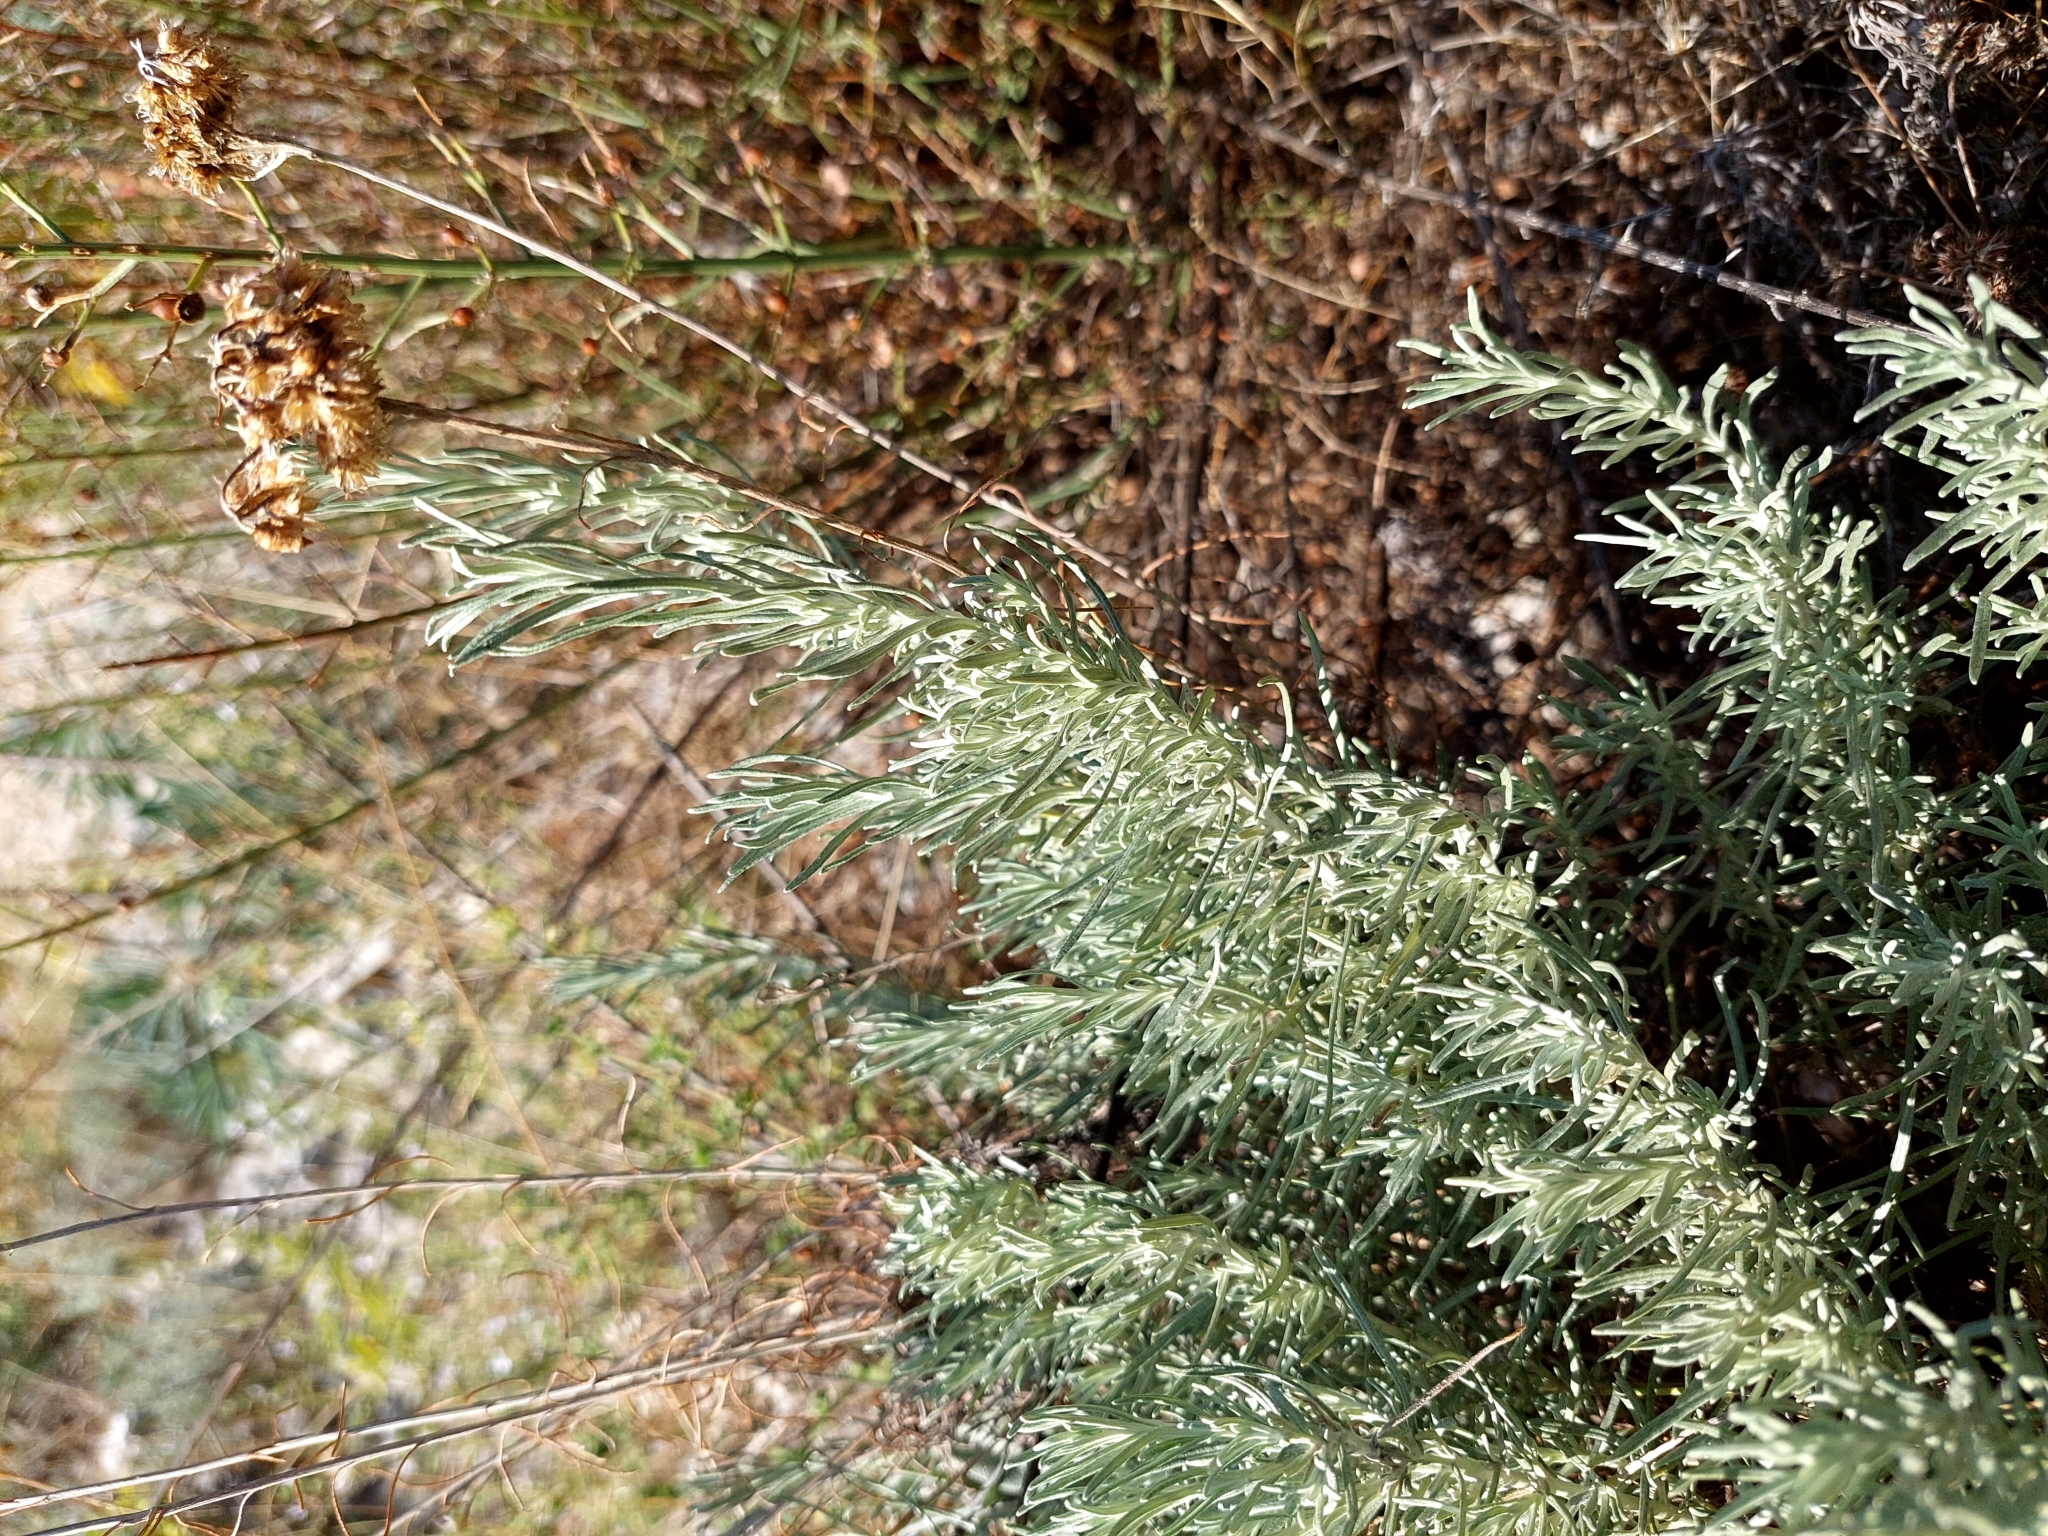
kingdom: Plantae
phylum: Tracheophyta
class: Magnoliopsida
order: Asterales
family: Asteraceae
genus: Helichrysum
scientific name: Helichrysum italicum
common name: Curryplant
